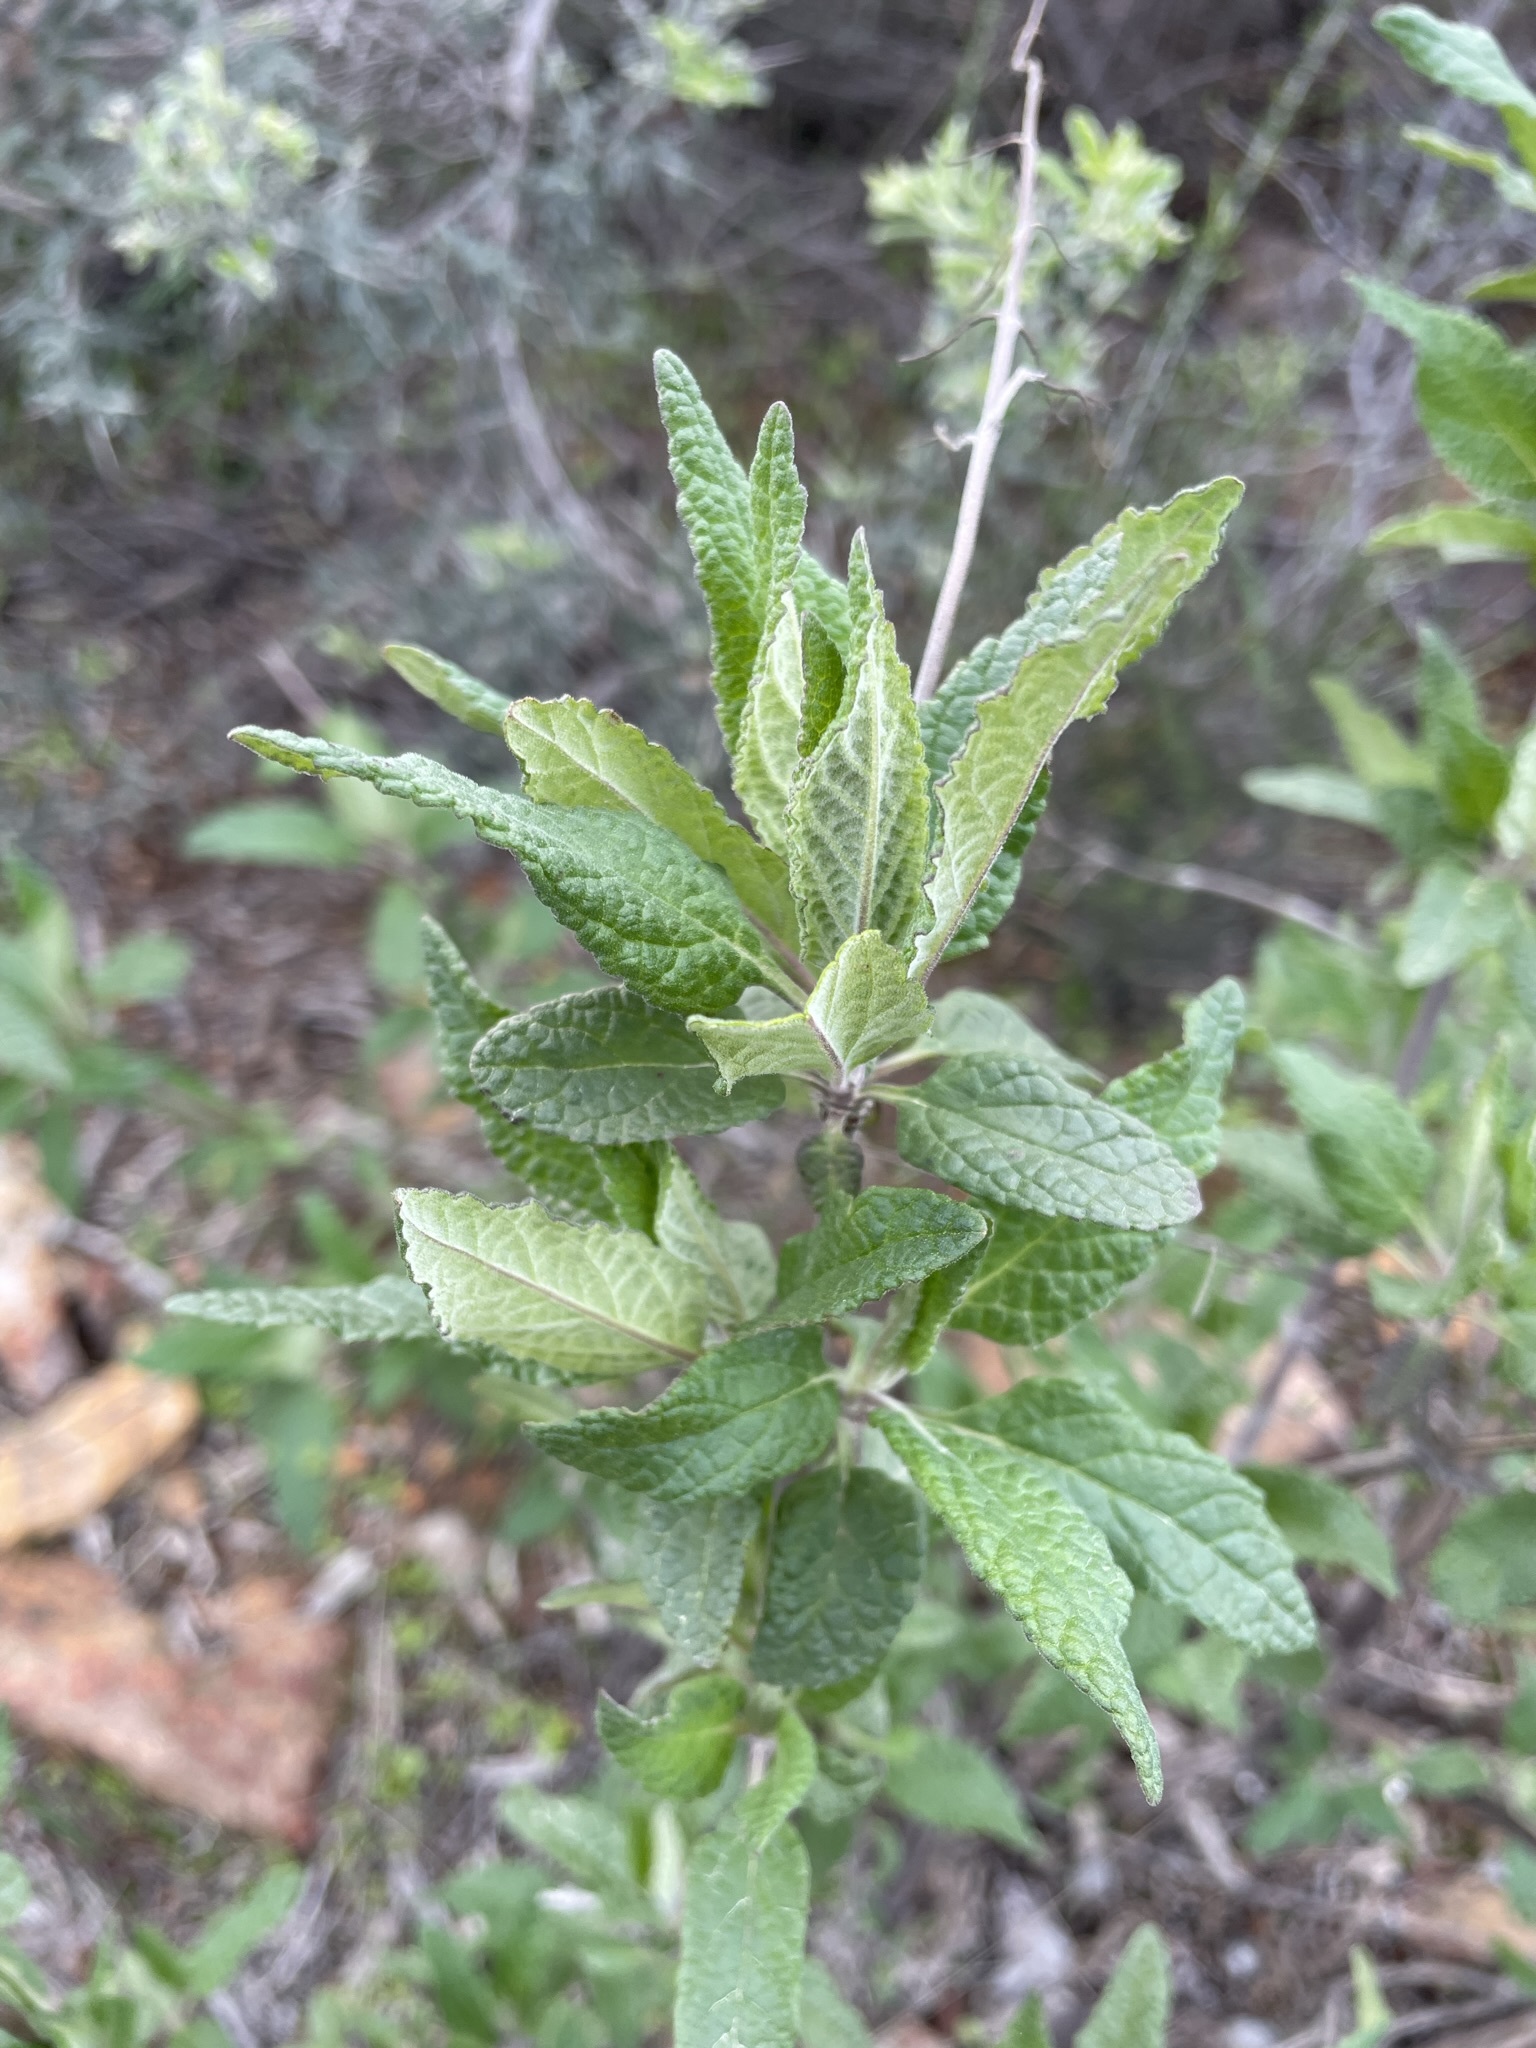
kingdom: Plantae
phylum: Tracheophyta
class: Magnoliopsida
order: Lamiales
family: Lamiaceae
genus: Lepechinia
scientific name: Lepechinia ganderi
